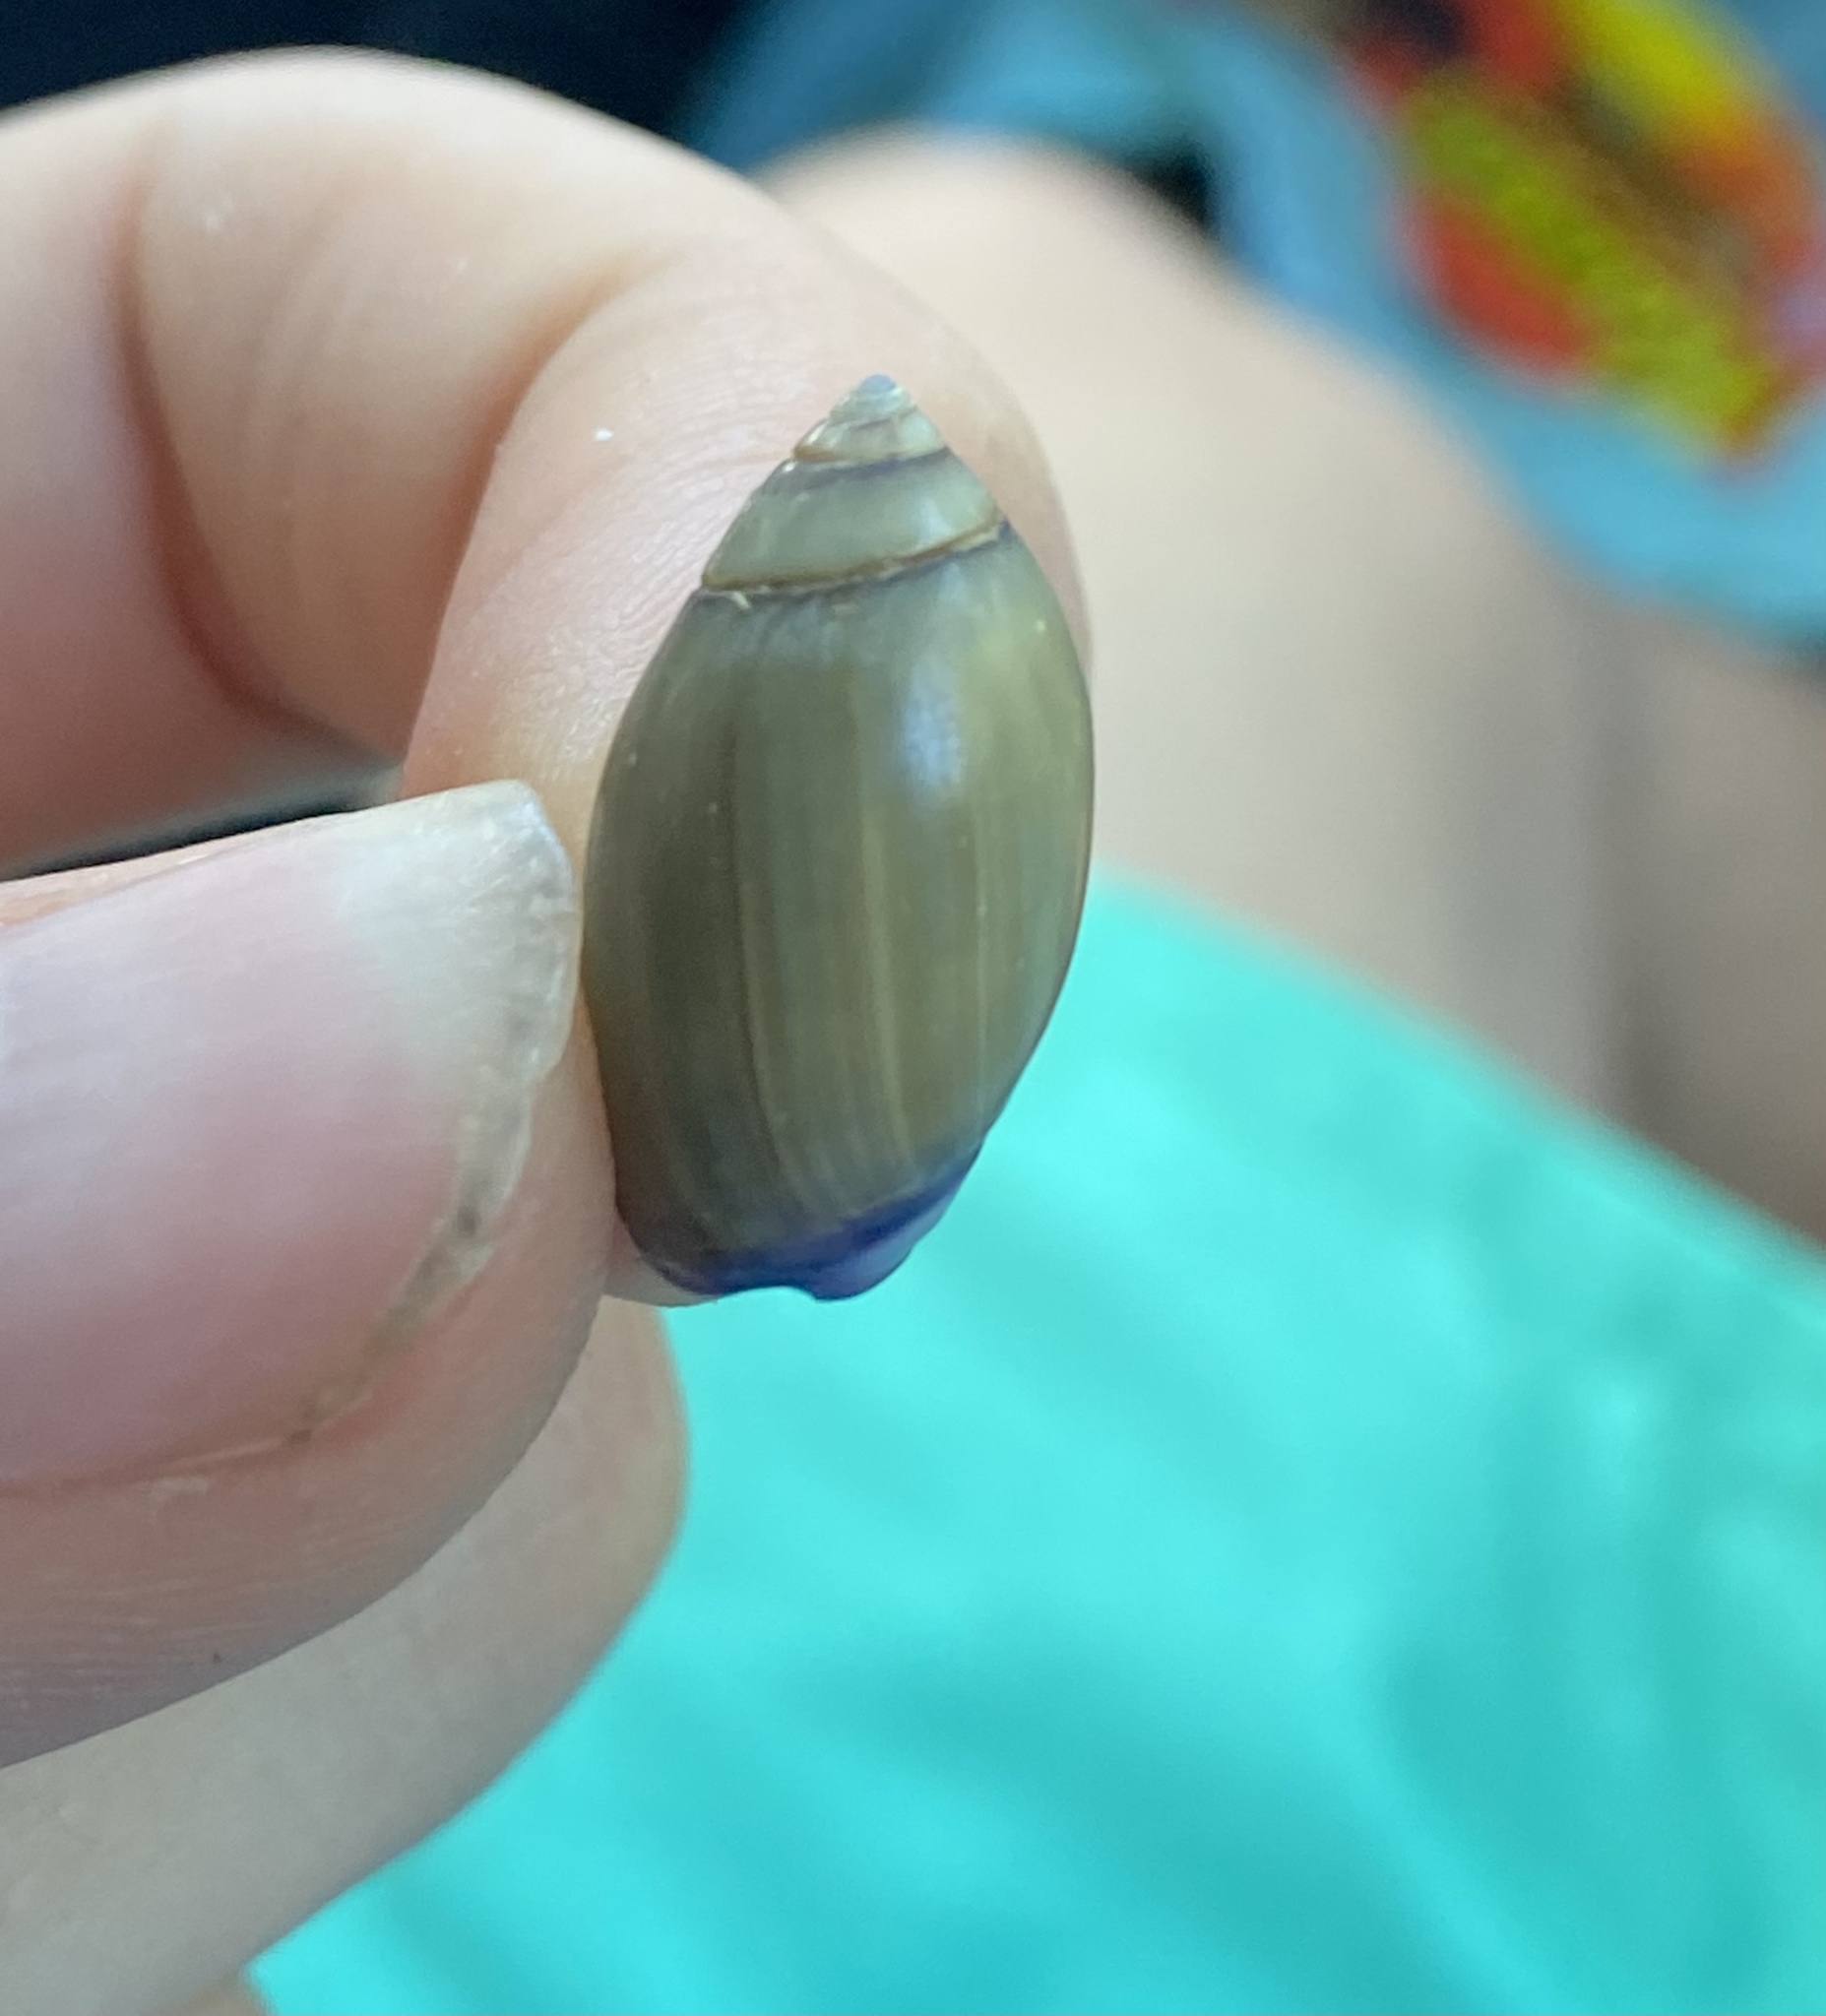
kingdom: Animalia
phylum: Mollusca
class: Gastropoda
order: Neogastropoda
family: Olividae
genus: Callianax
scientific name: Callianax biplicata
